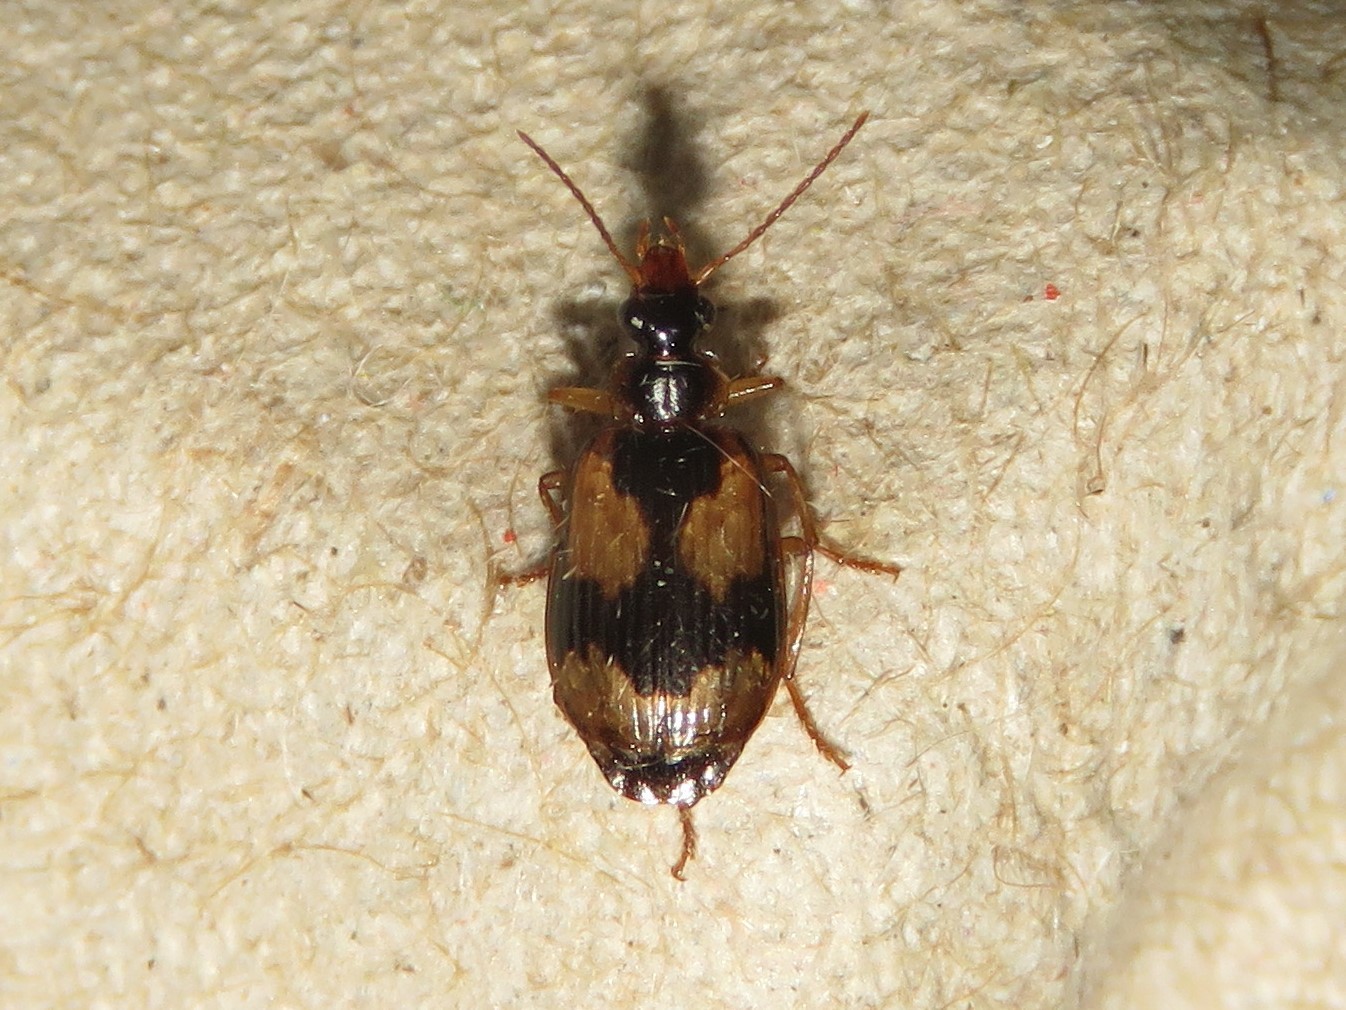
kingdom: Animalia
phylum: Arthropoda
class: Insecta
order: Coleoptera
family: Carabidae
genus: Lebia
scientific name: Lebia fuscata
